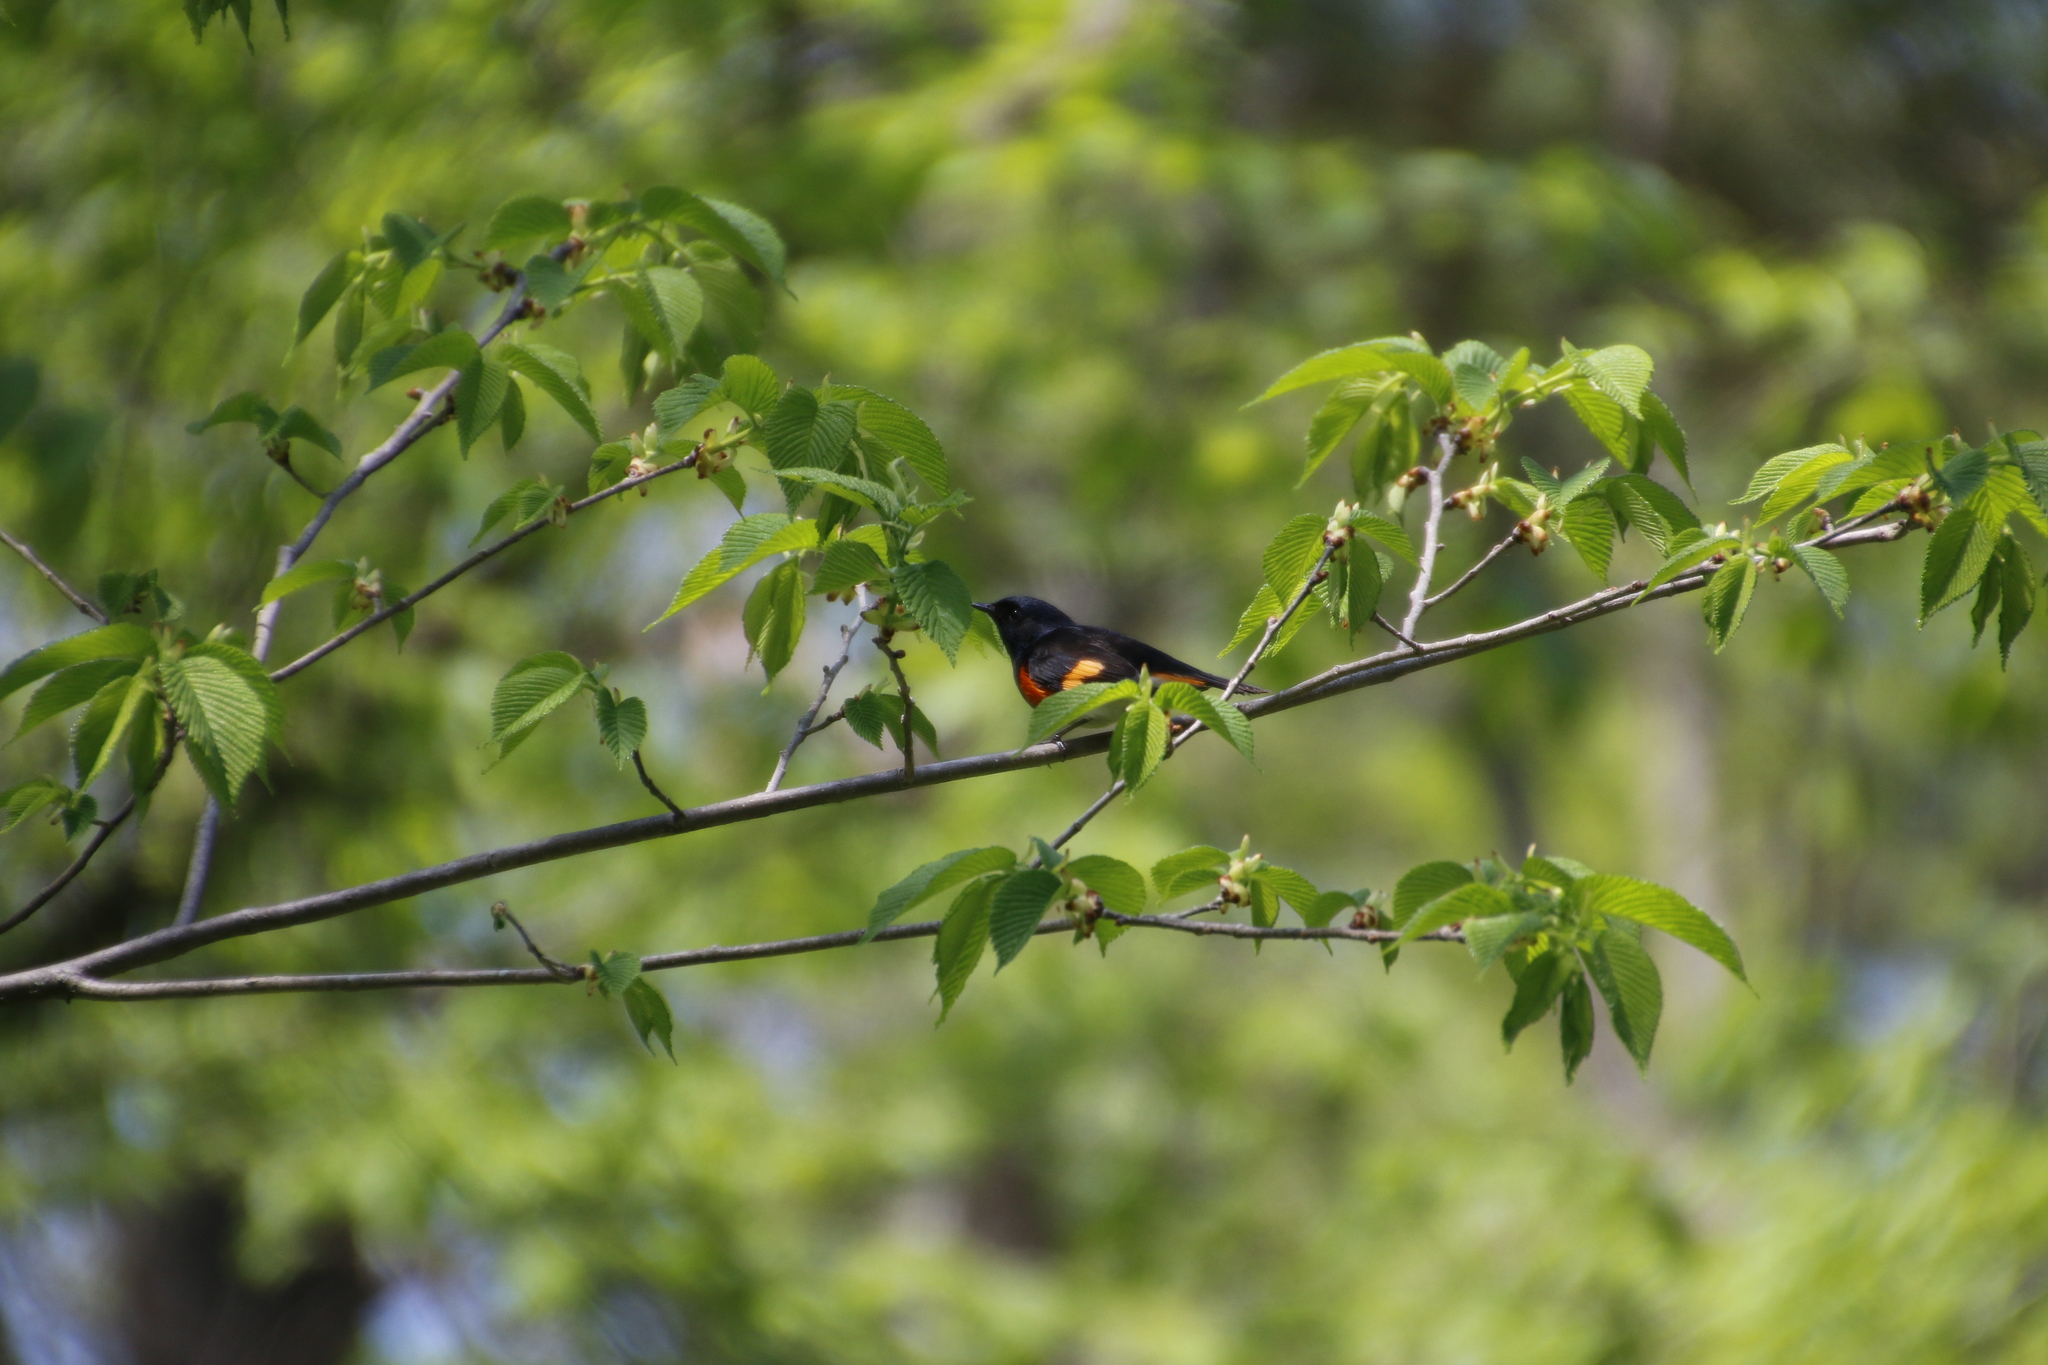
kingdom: Animalia
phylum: Chordata
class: Aves
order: Passeriformes
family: Parulidae
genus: Setophaga
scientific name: Setophaga ruticilla
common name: American redstart
